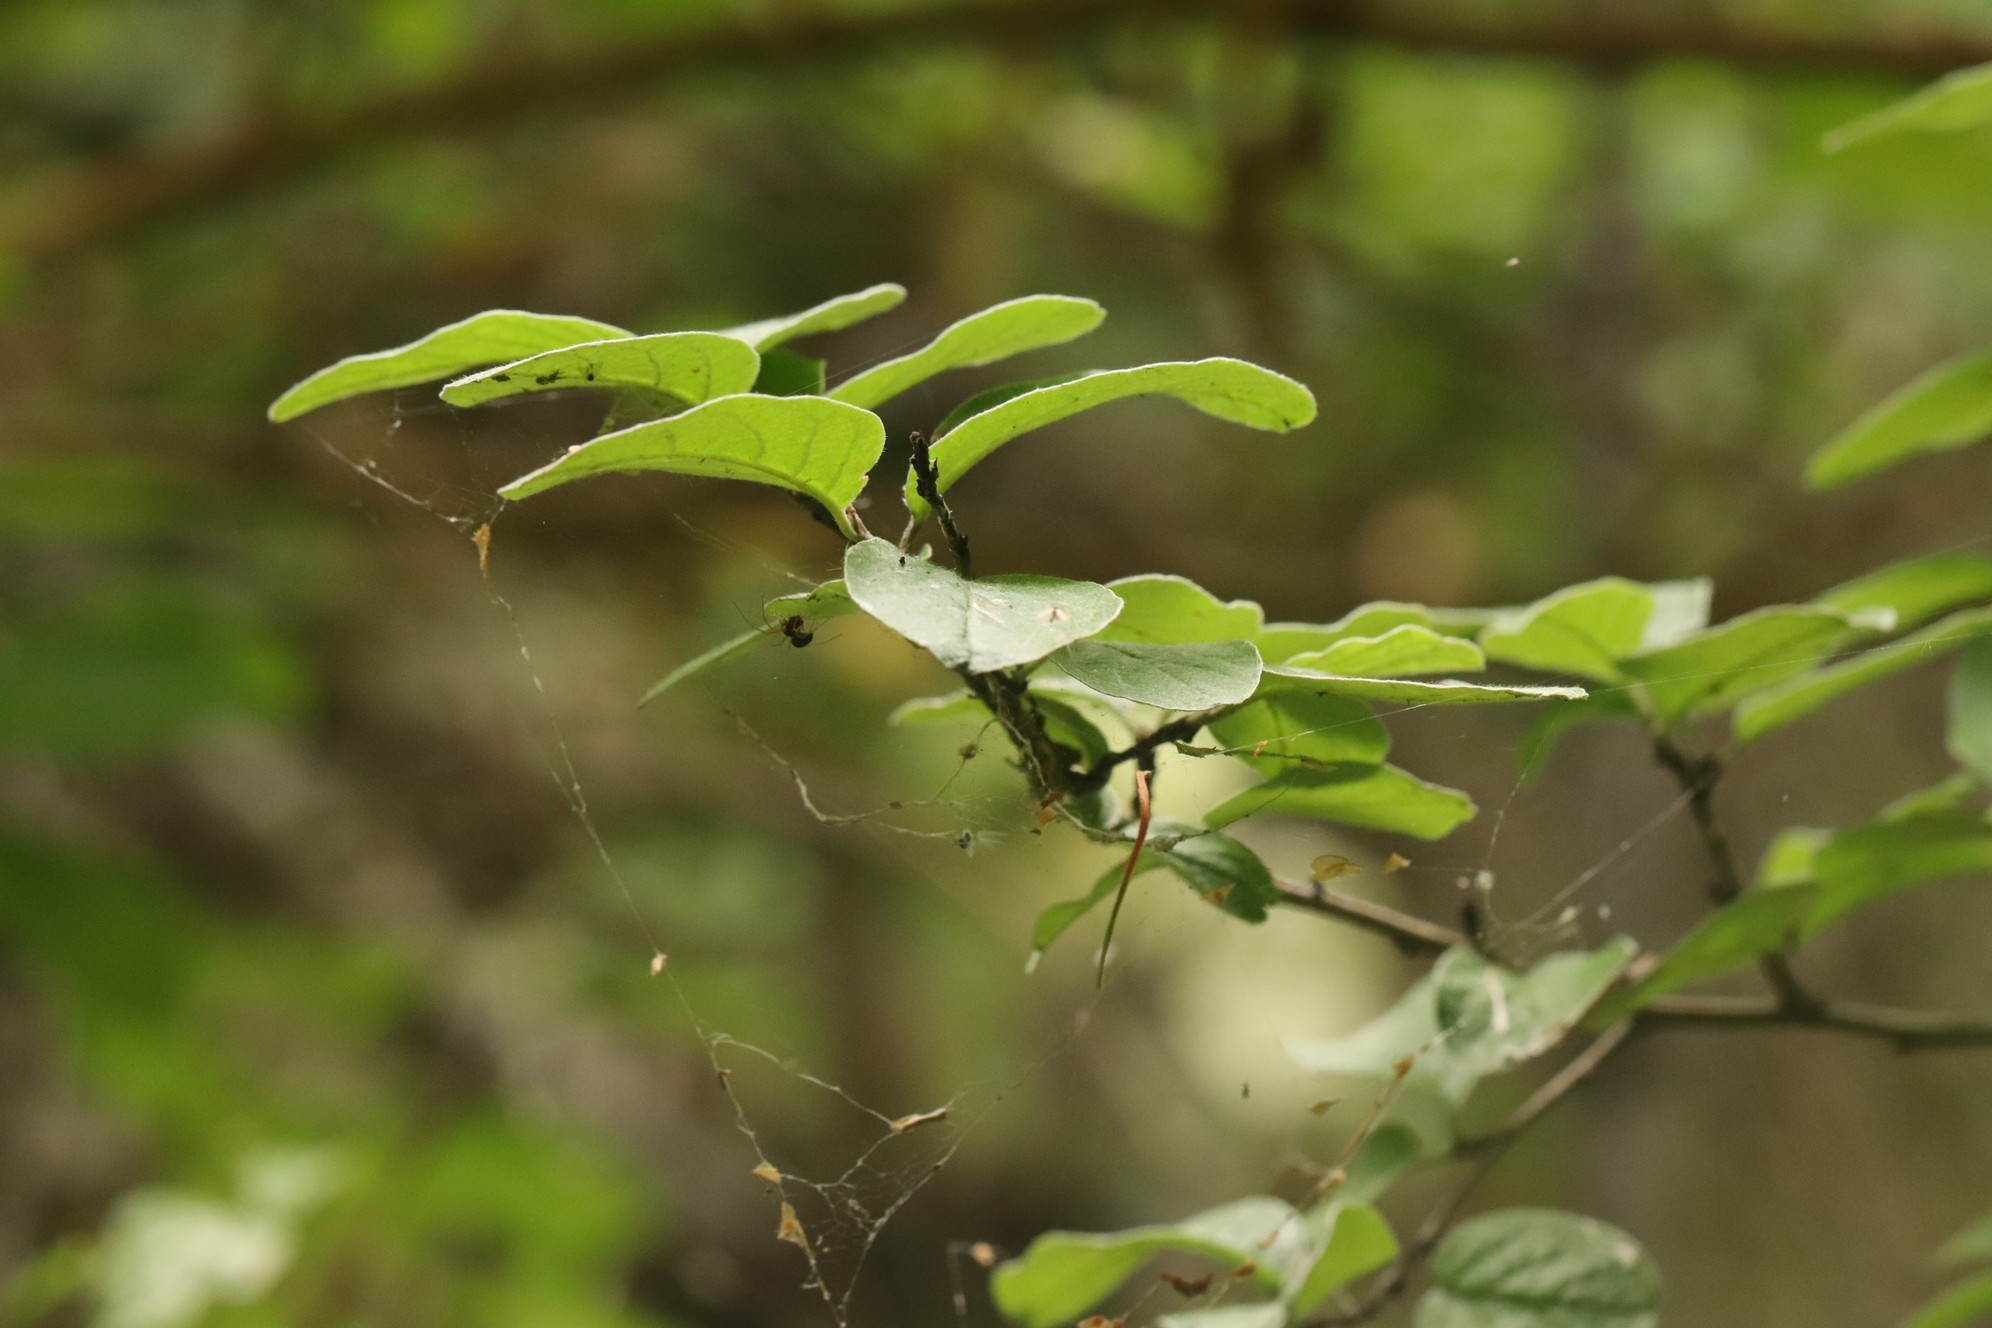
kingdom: Plantae
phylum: Tracheophyta
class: Magnoliopsida
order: Rosales
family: Rosaceae
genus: Cotoneaster
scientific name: Cotoneaster melanocarpus
